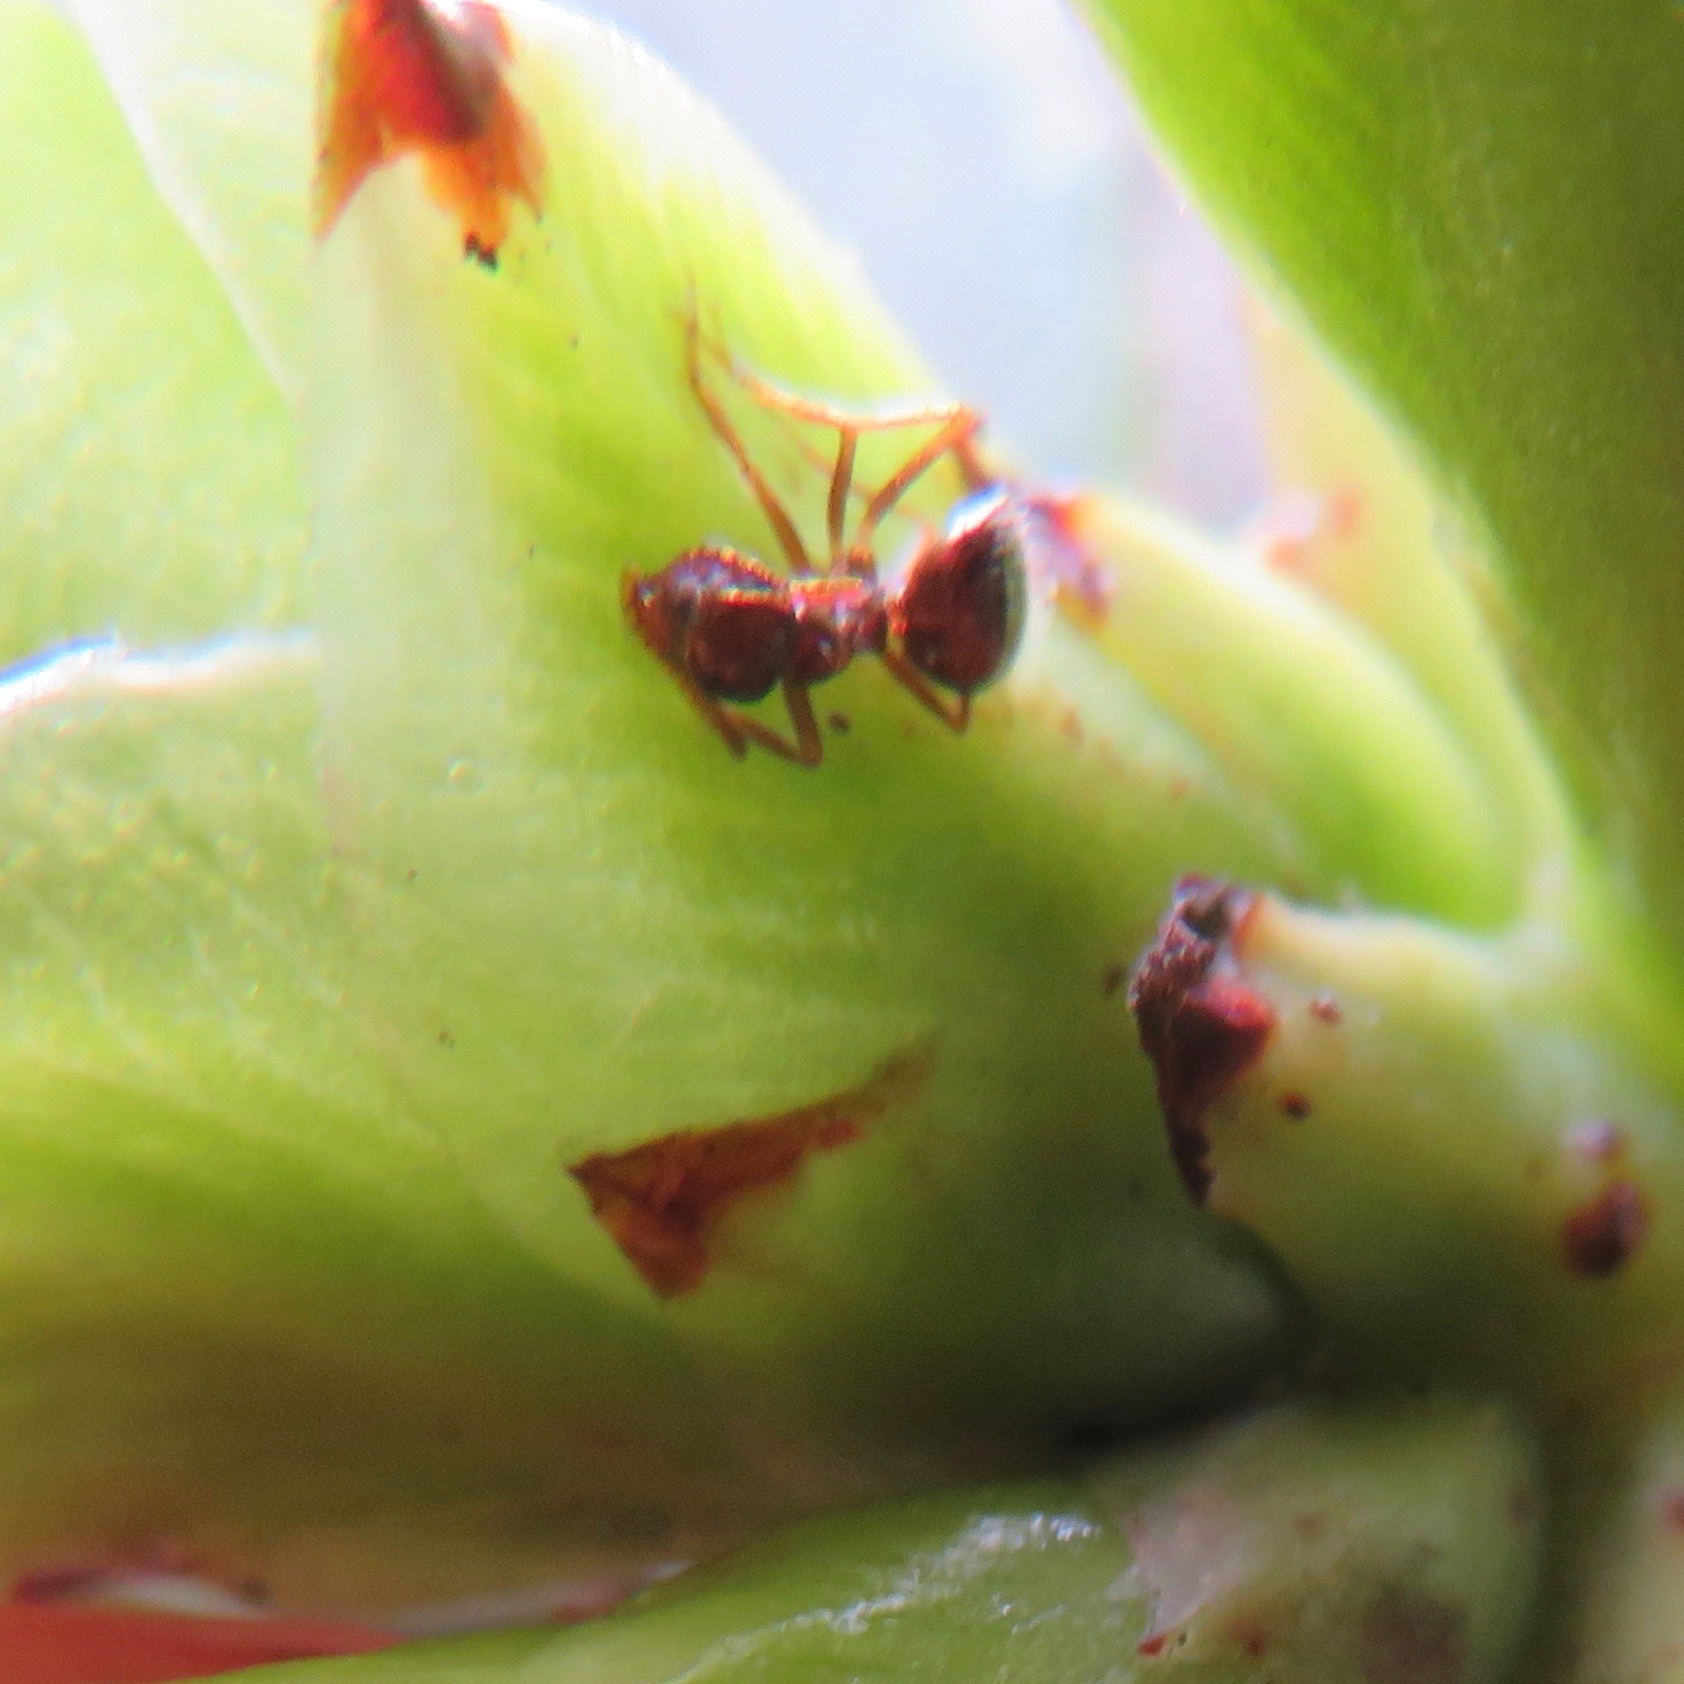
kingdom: Animalia
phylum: Arthropoda
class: Insecta
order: Hymenoptera
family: Formicidae
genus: Prenolepis
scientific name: Prenolepis imparis
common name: Small honey ant
